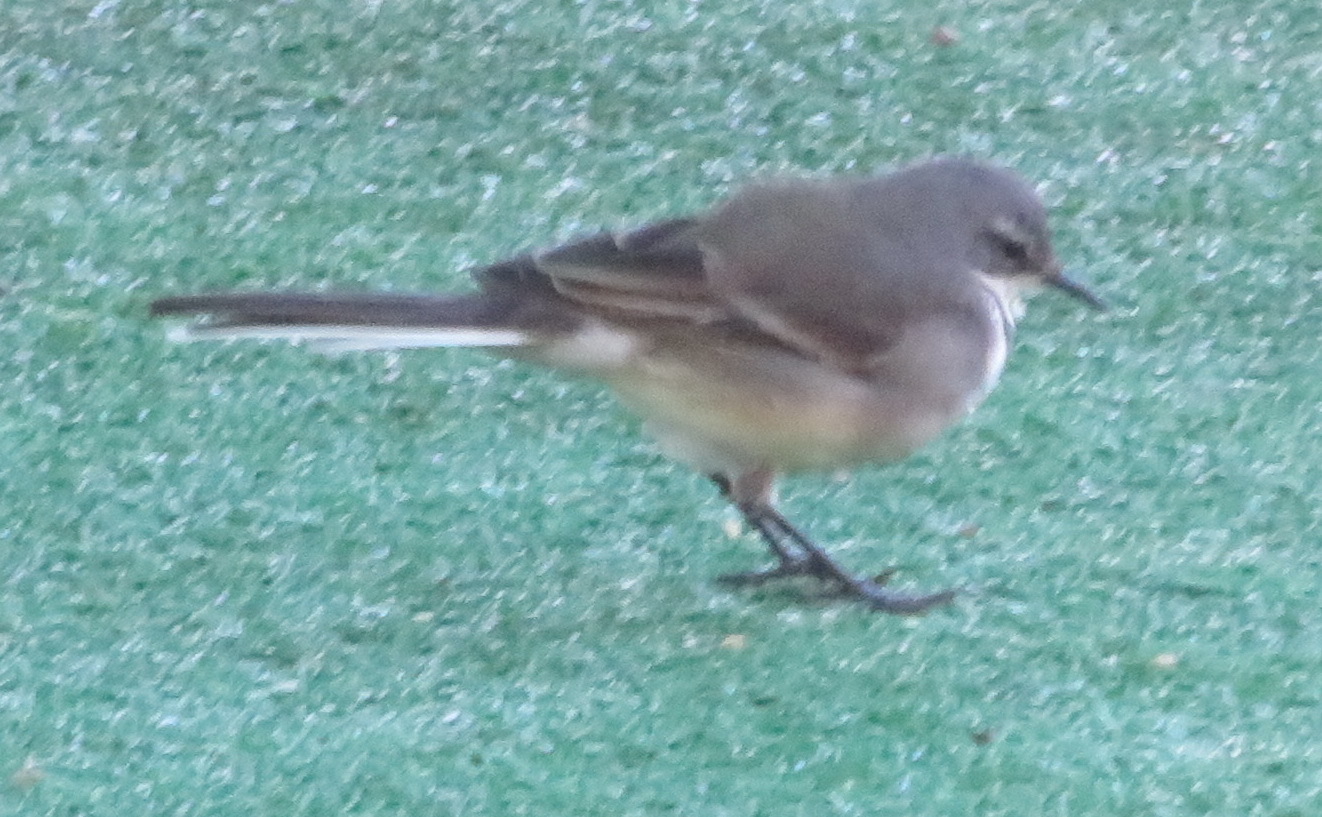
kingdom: Animalia
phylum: Chordata
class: Aves
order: Passeriformes
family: Motacillidae
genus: Motacilla
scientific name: Motacilla capensis
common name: Cape wagtail
